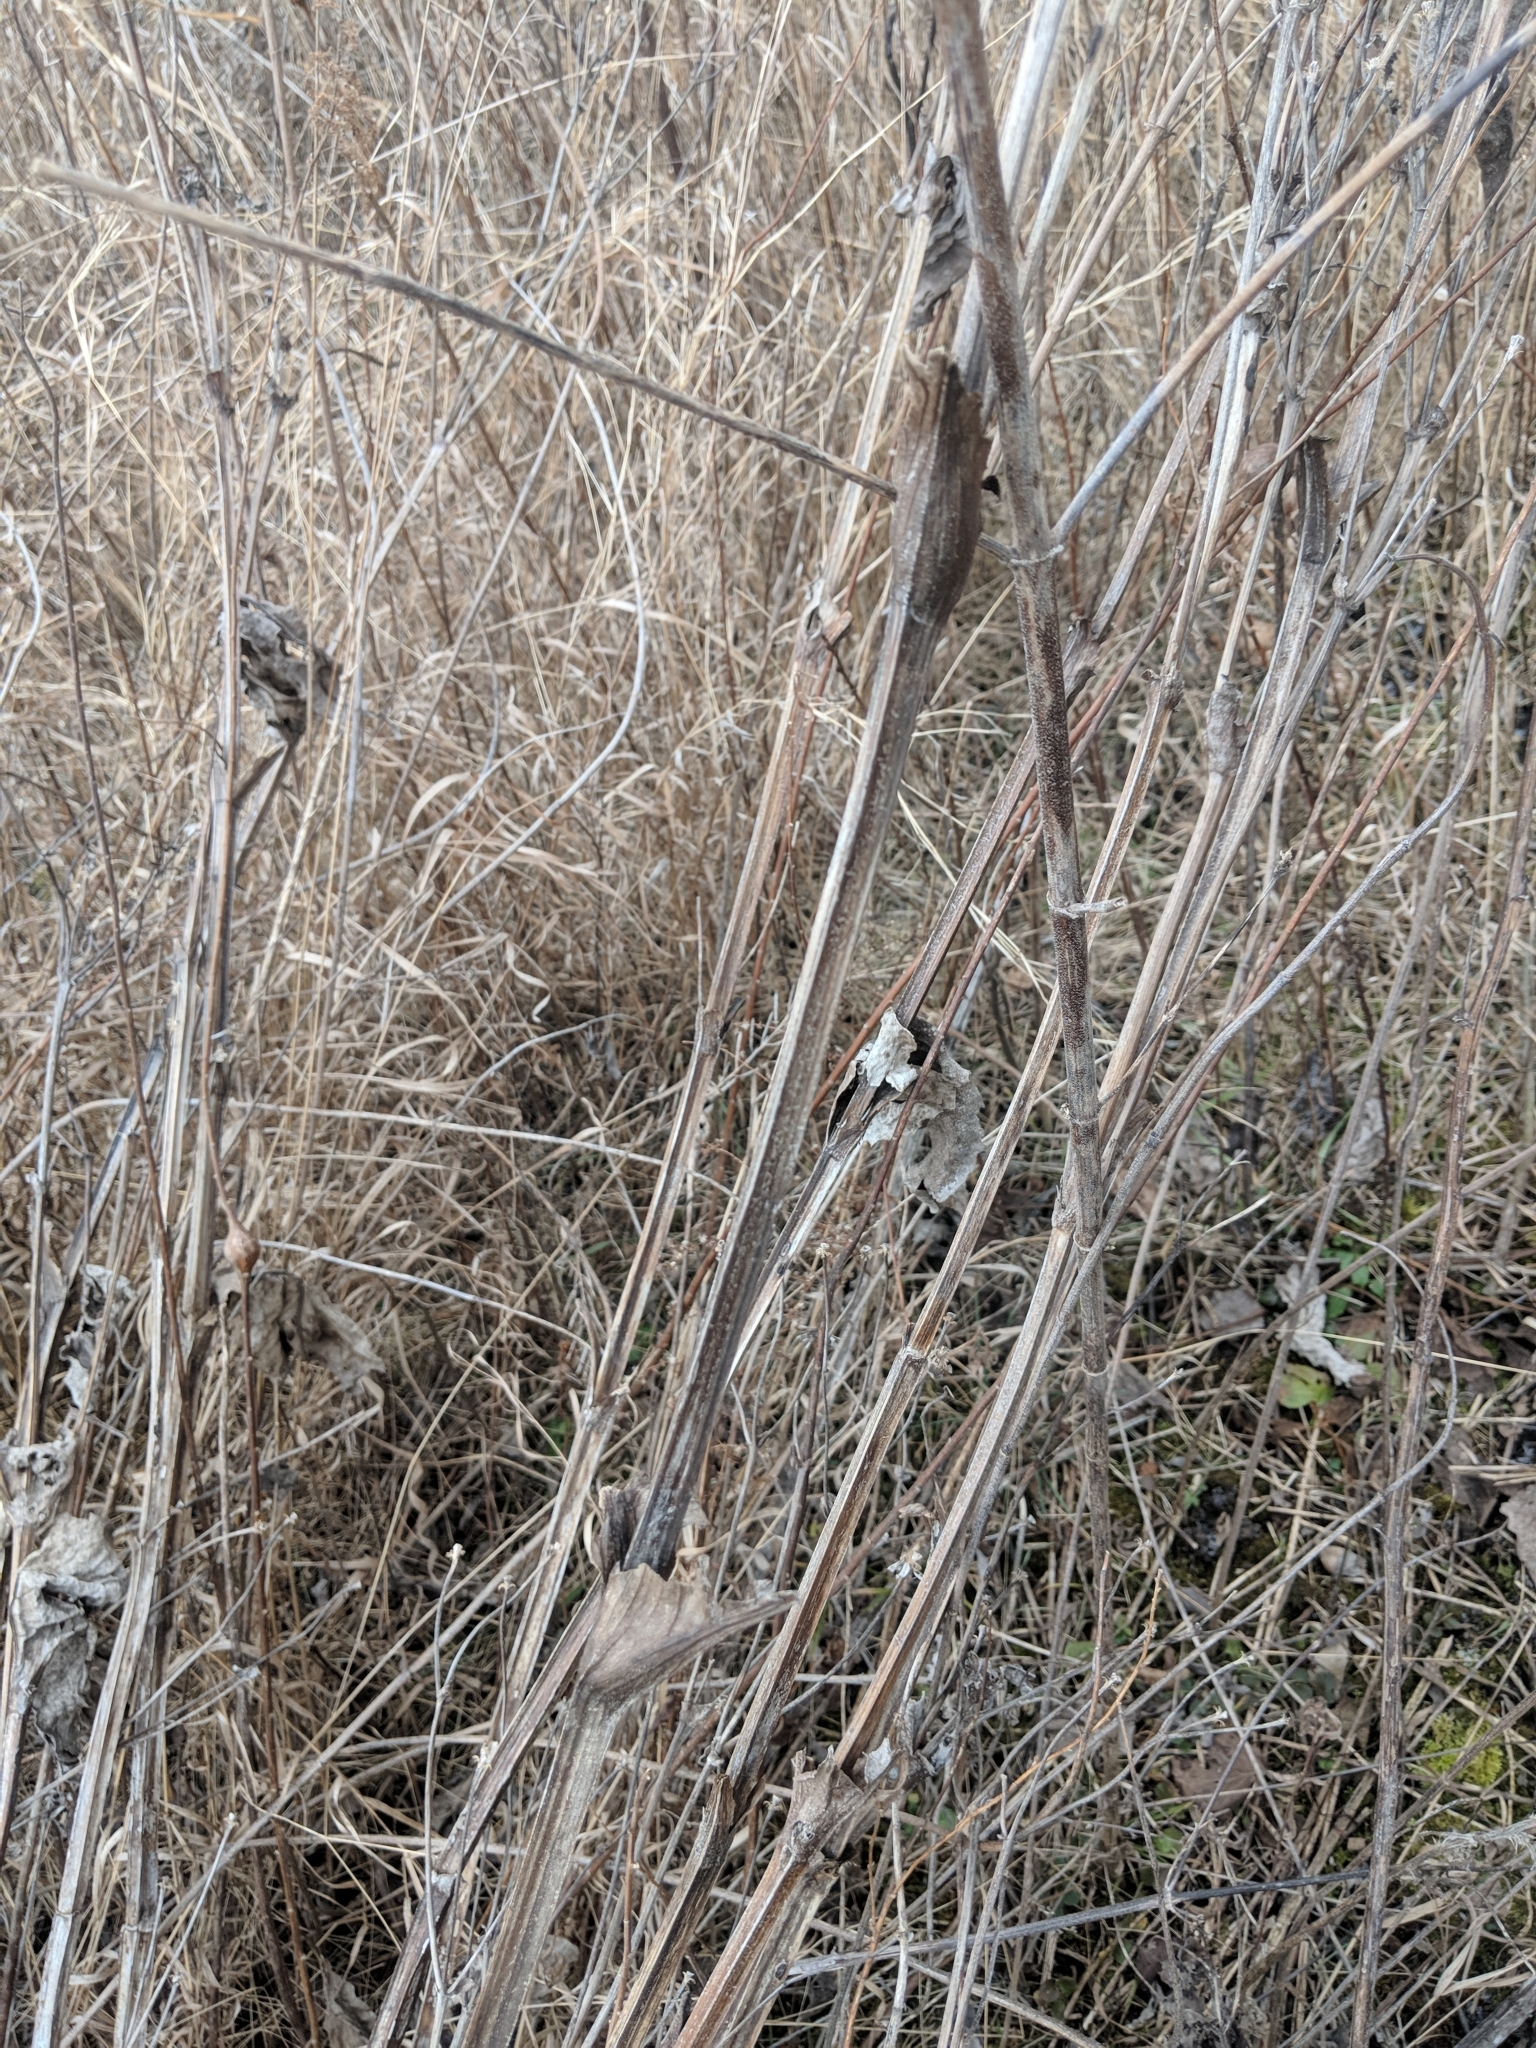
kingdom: Plantae
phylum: Tracheophyta
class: Magnoliopsida
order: Asterales
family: Asteraceae
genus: Silphium
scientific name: Silphium perfoliatum
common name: Cup-plant
